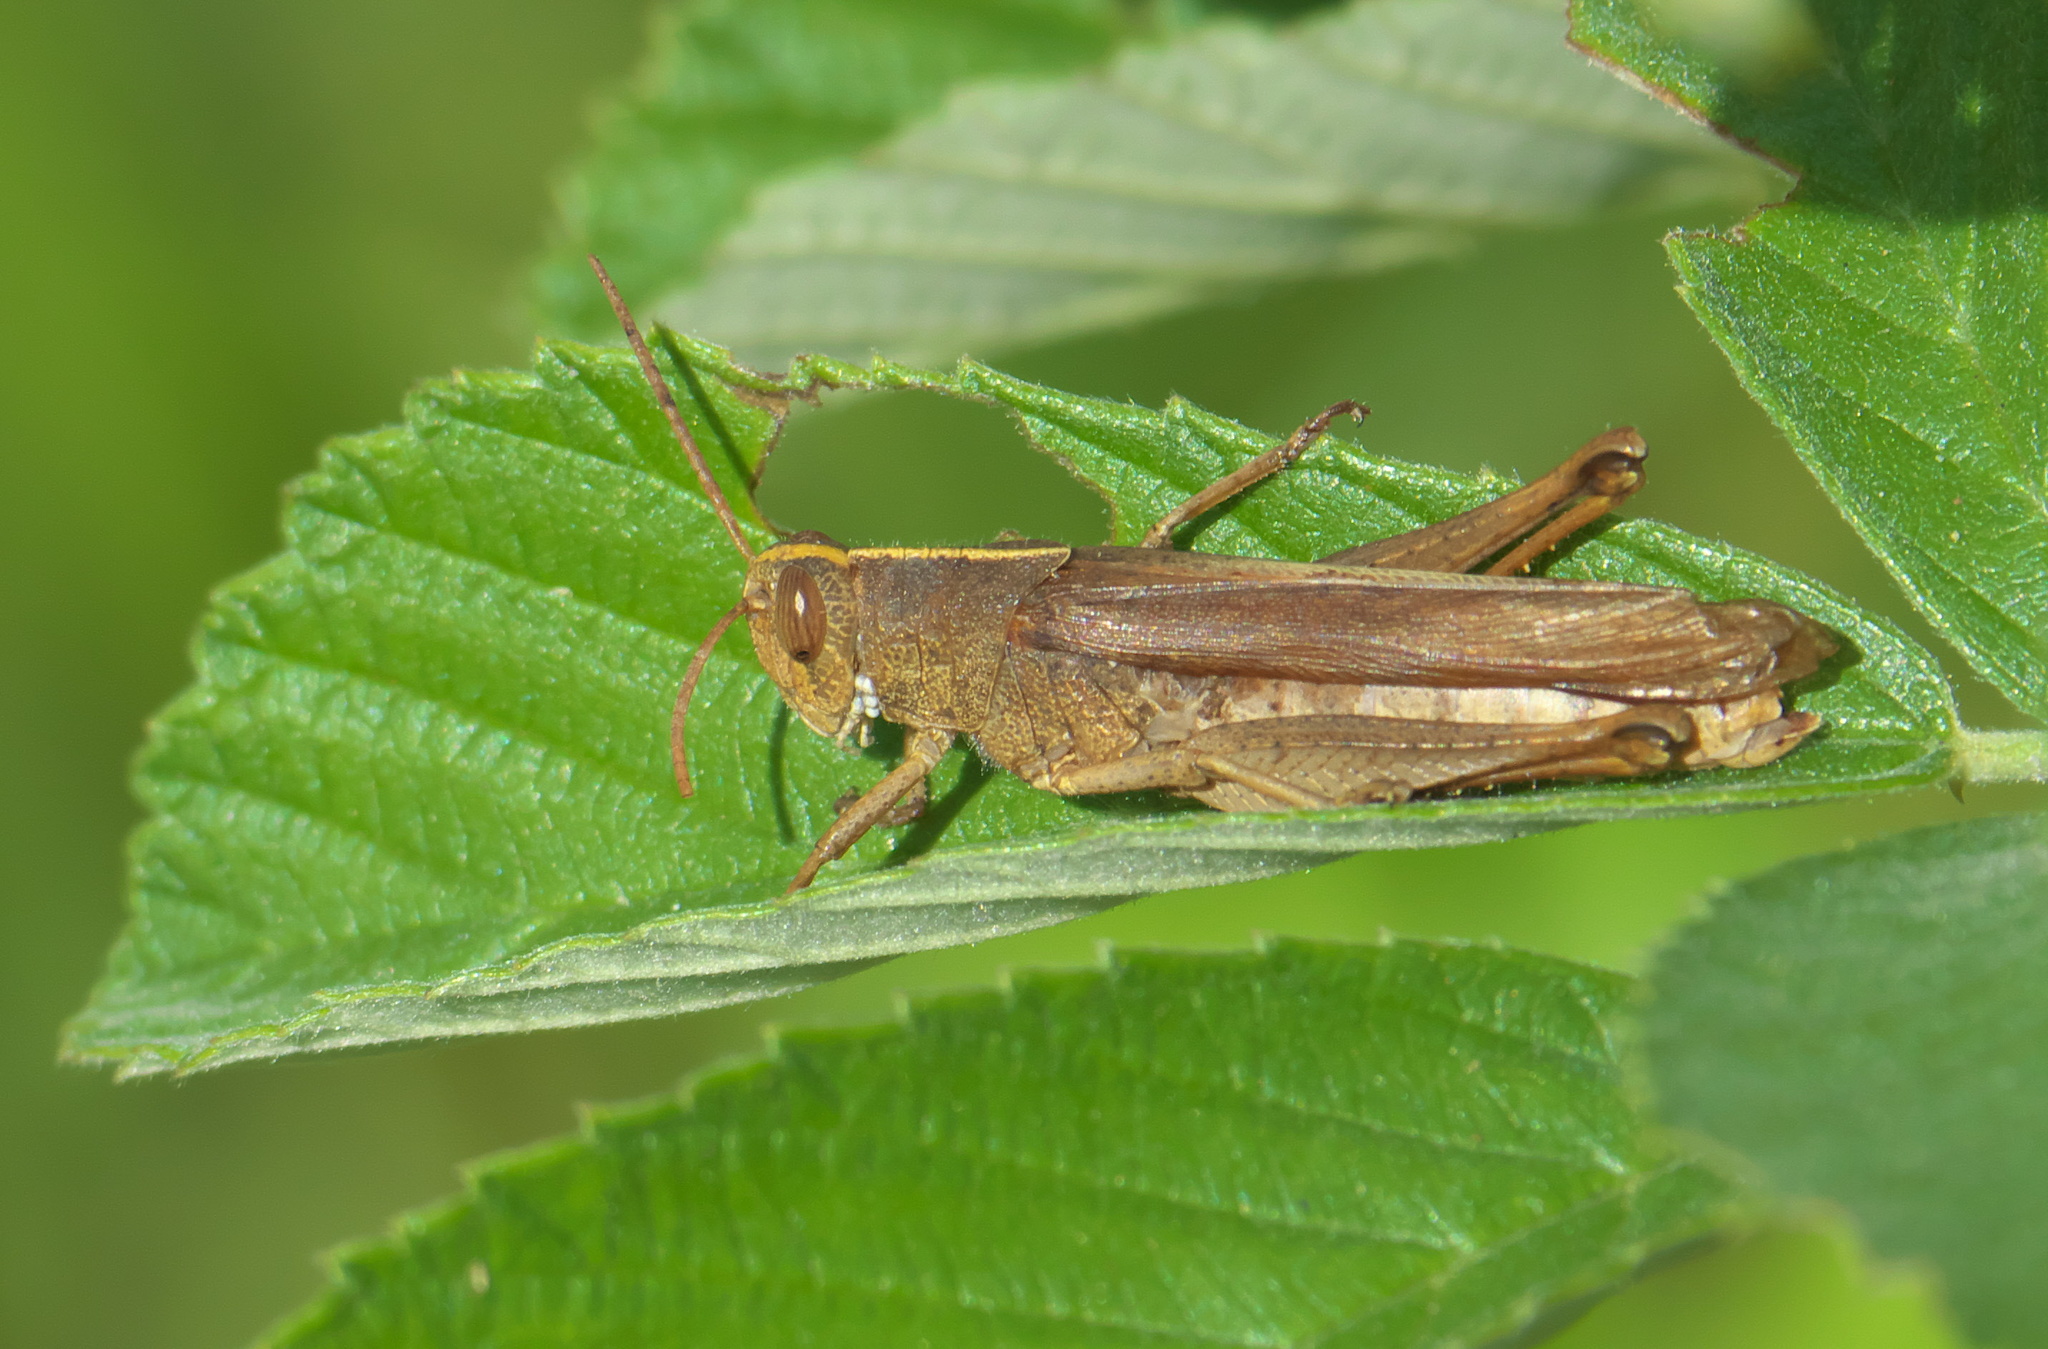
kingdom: Animalia
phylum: Arthropoda
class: Insecta
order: Orthoptera
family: Acrididae
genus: Schistocerca
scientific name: Schistocerca damnifica
